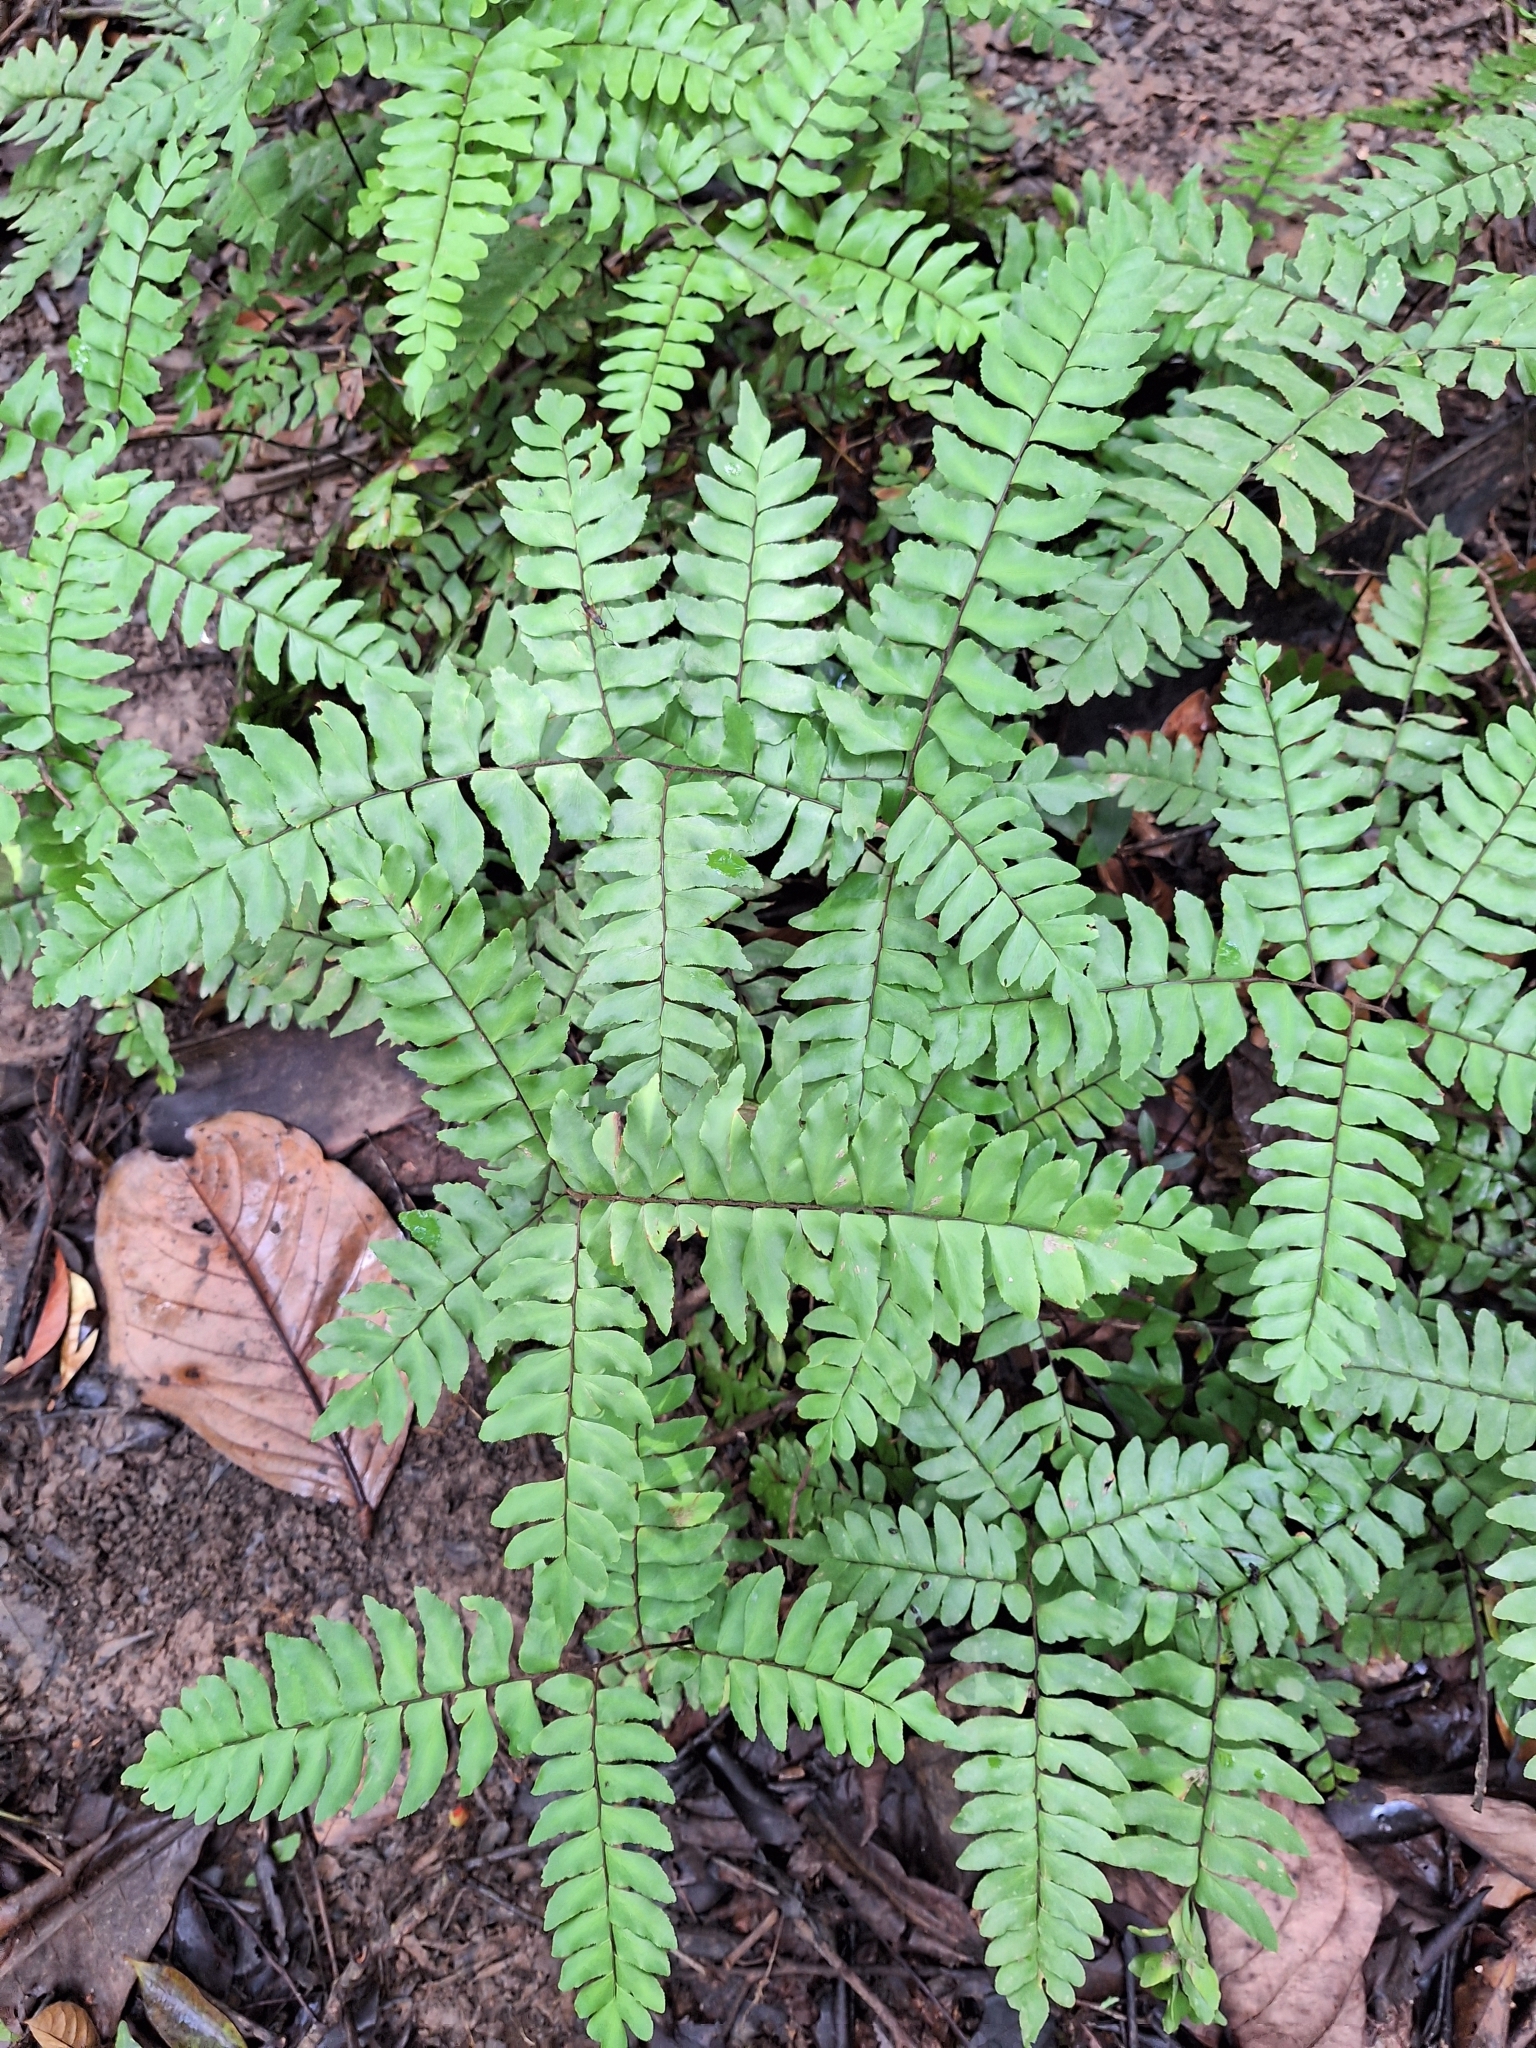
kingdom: Plantae
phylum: Tracheophyta
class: Polypodiopsida
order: Polypodiales
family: Pteridaceae
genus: Adiantum
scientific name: Adiantum latifolium
